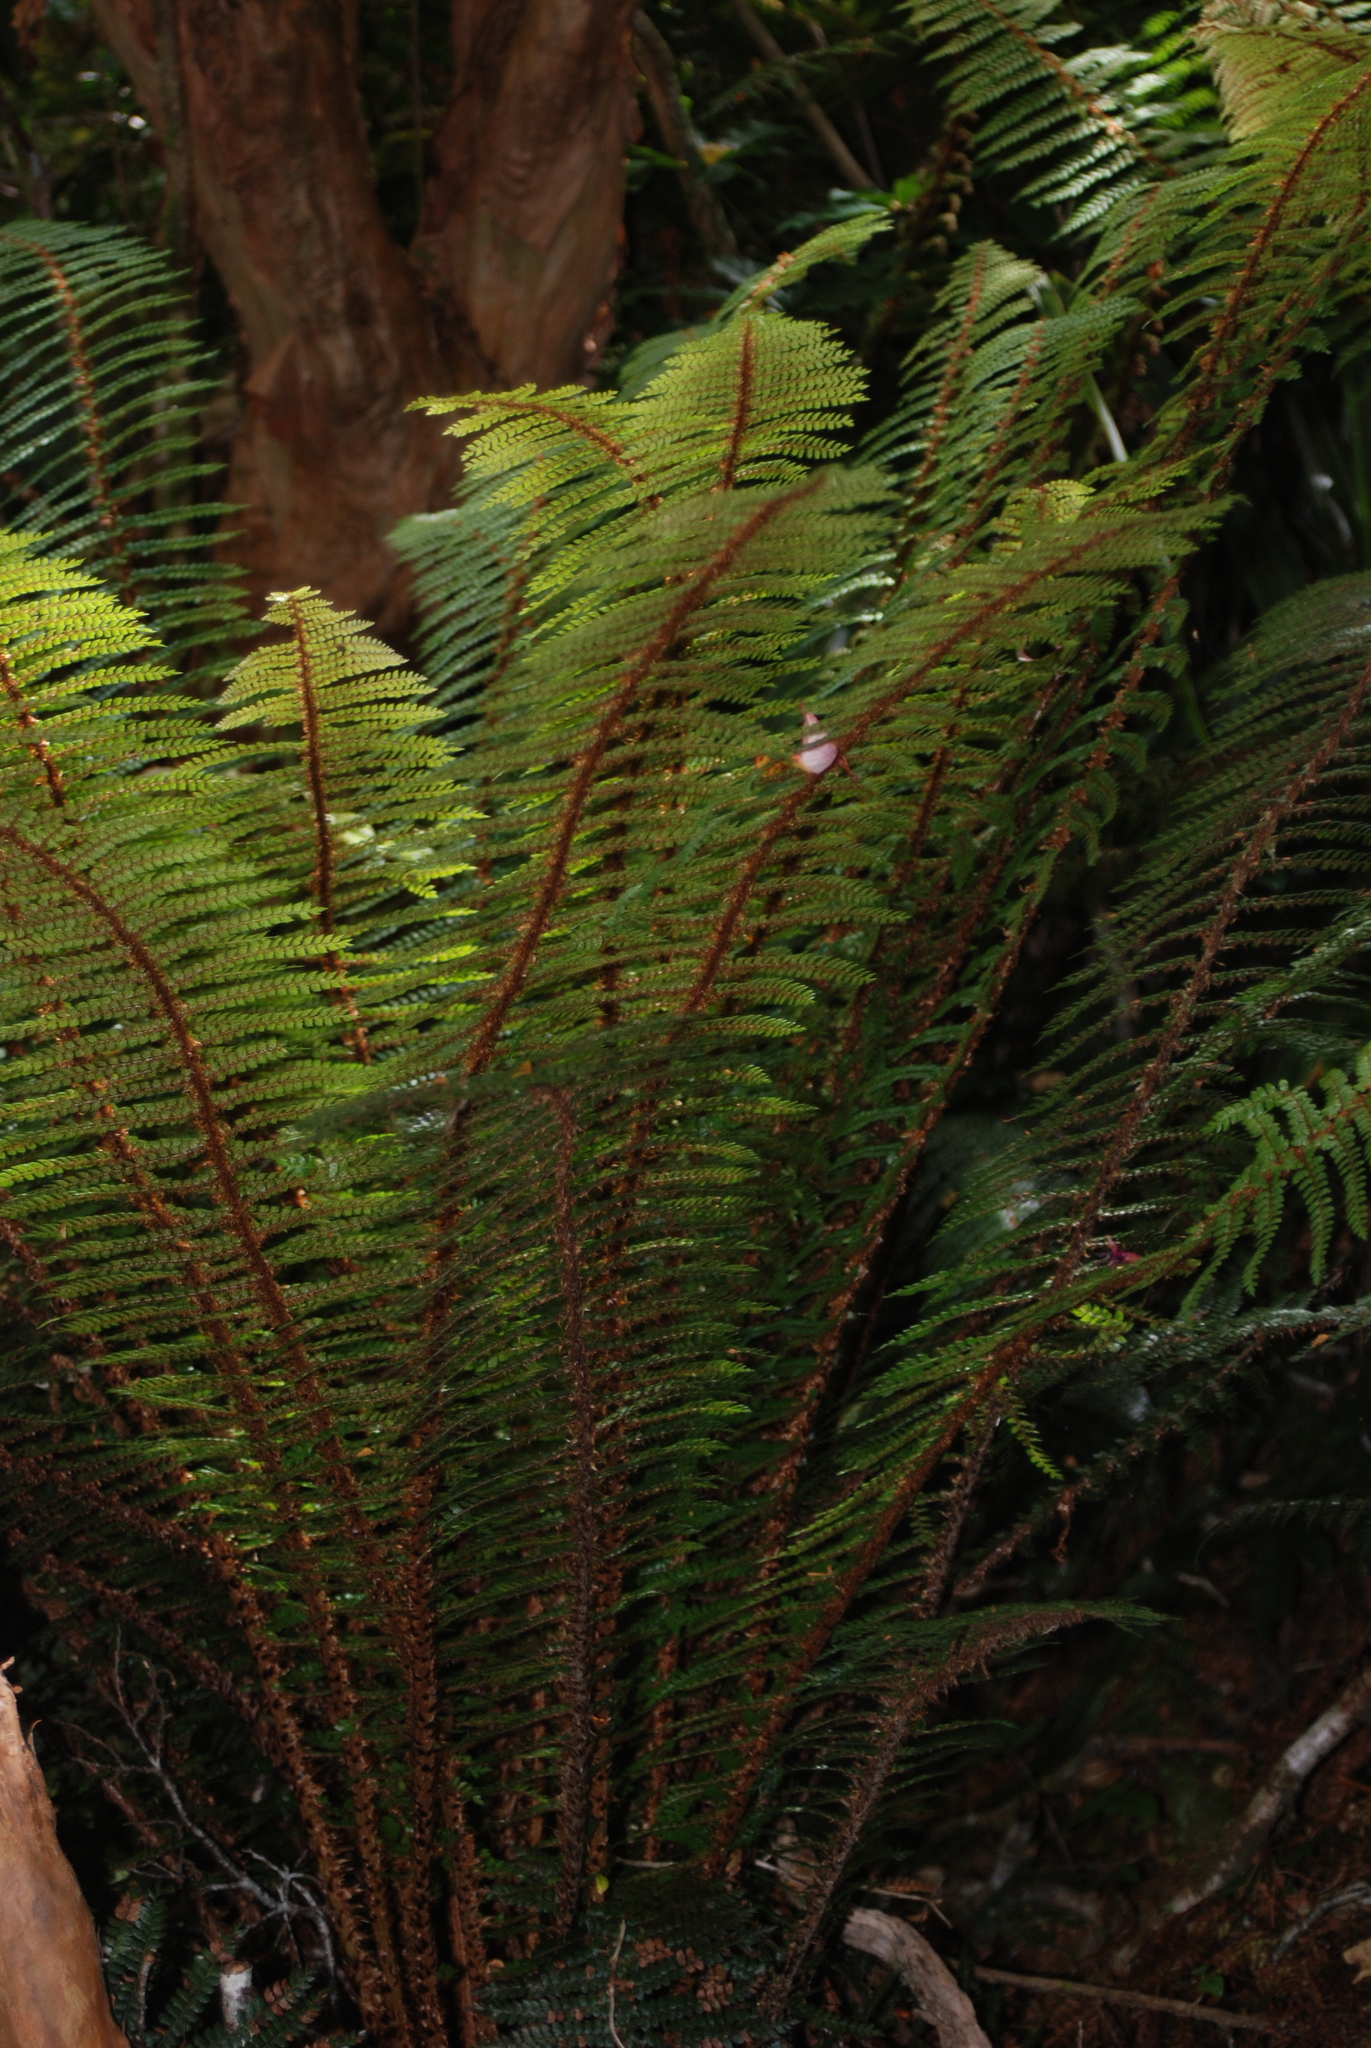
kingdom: Plantae
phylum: Tracheophyta
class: Polypodiopsida
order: Polypodiales
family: Dryopteridaceae
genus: Polystichum
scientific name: Polystichum vestitum
